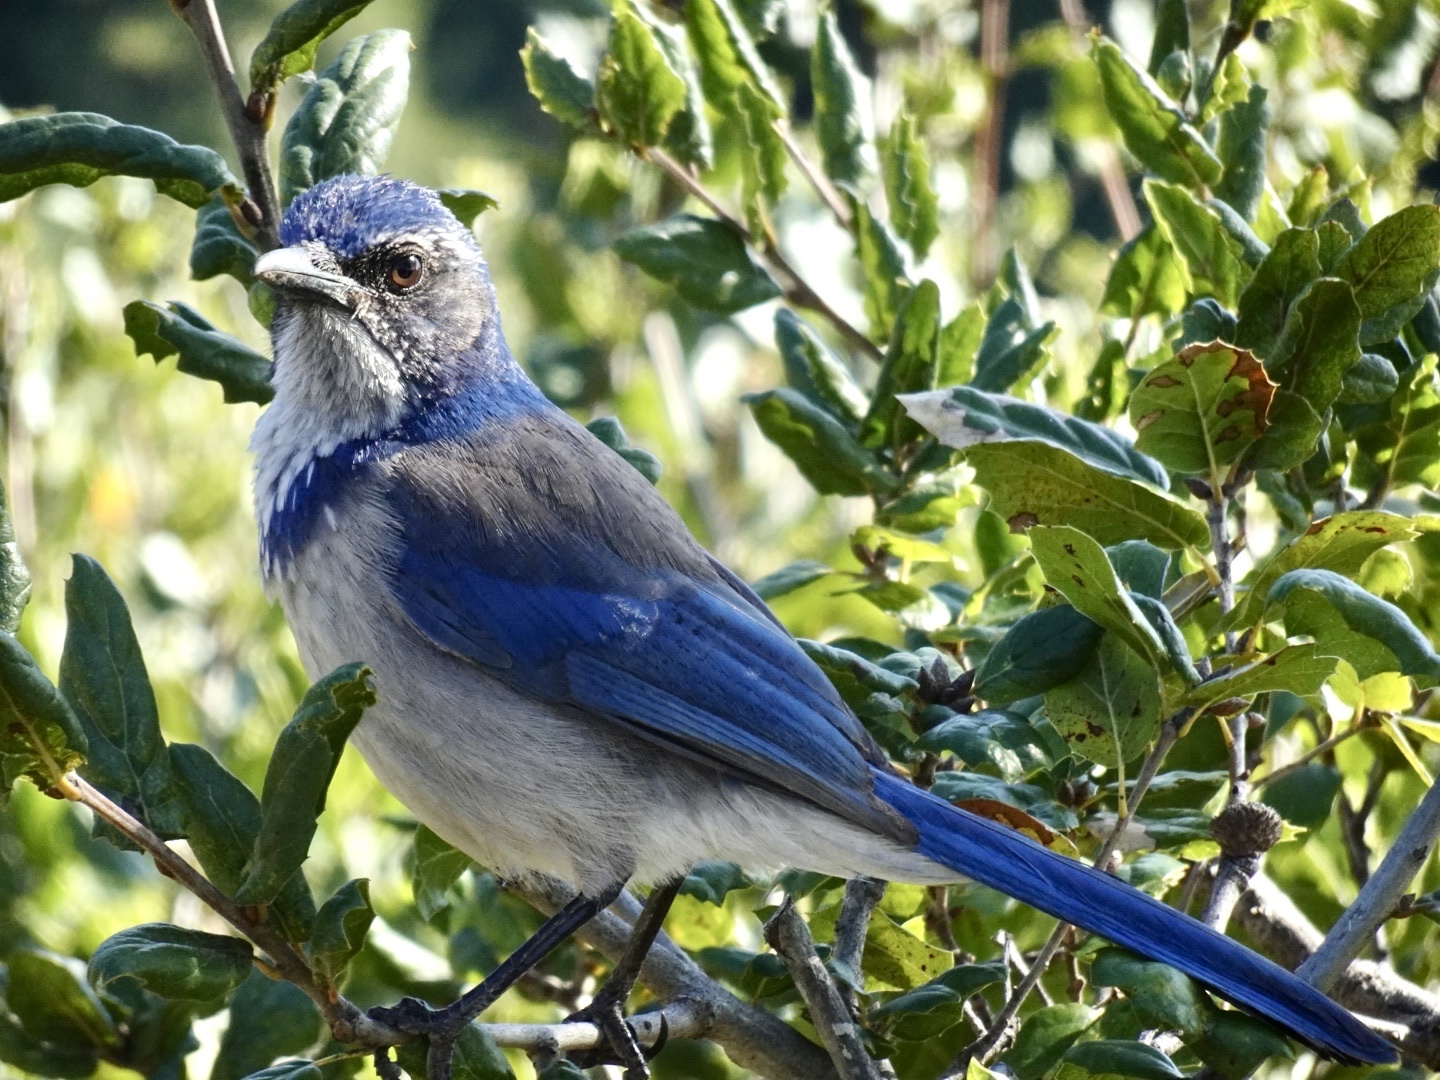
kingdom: Animalia
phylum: Chordata
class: Aves
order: Passeriformes
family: Corvidae
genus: Aphelocoma
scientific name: Aphelocoma californica
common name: California scrub-jay
